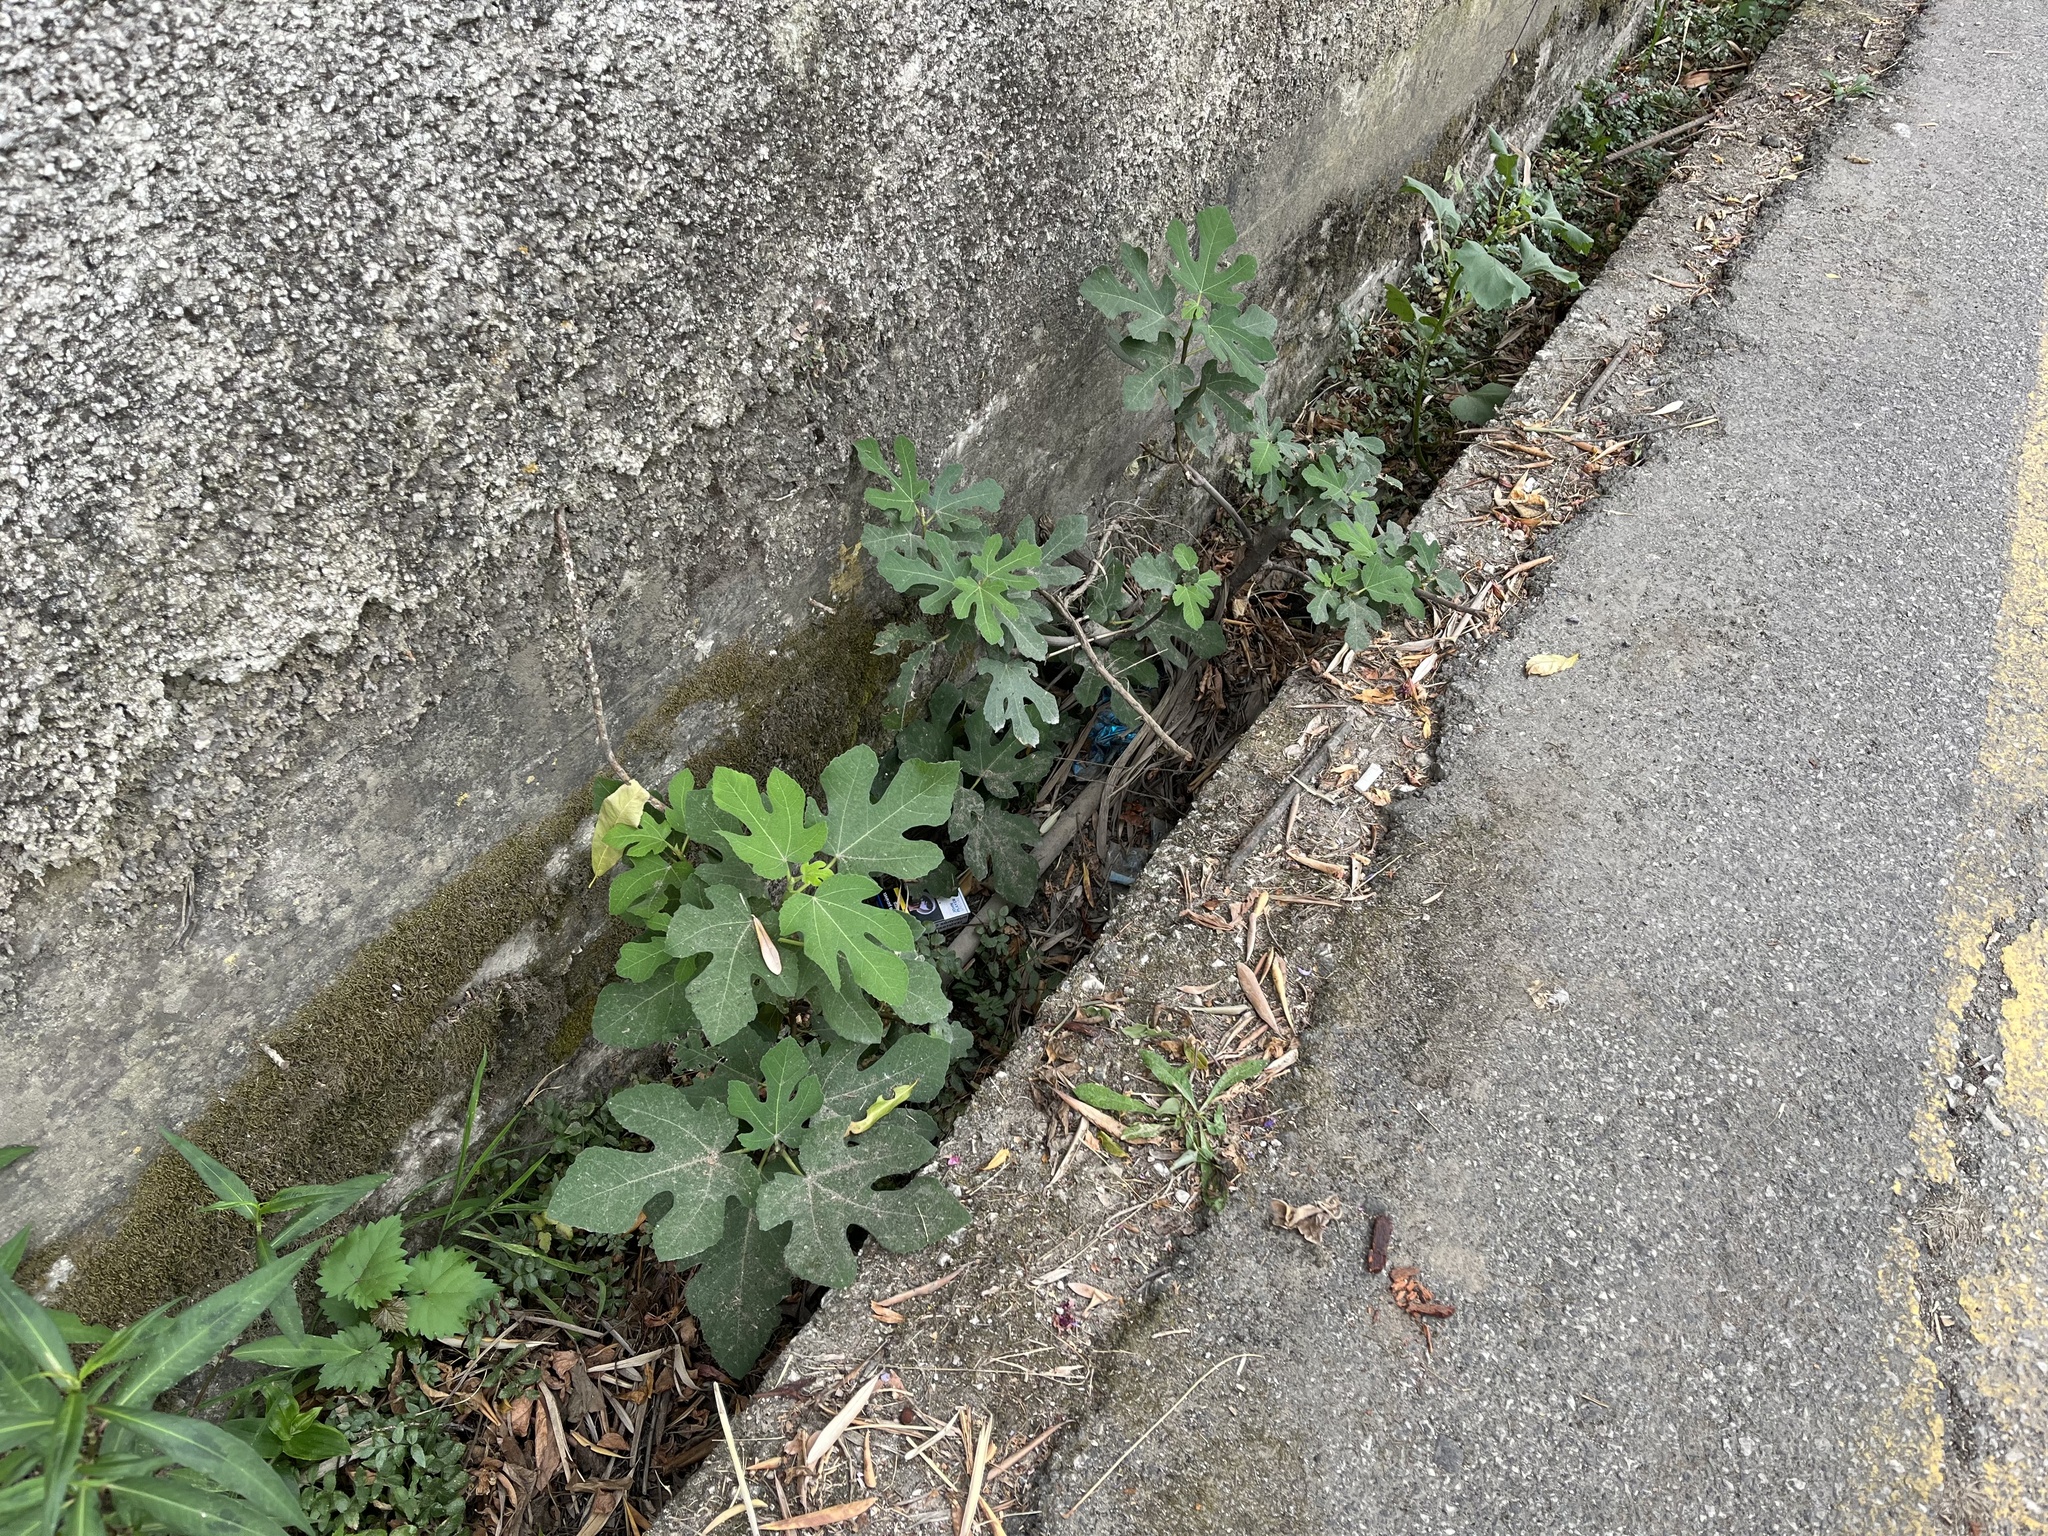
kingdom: Plantae
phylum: Tracheophyta
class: Magnoliopsida
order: Rosales
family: Moraceae
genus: Ficus
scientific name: Ficus carica
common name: Fig
